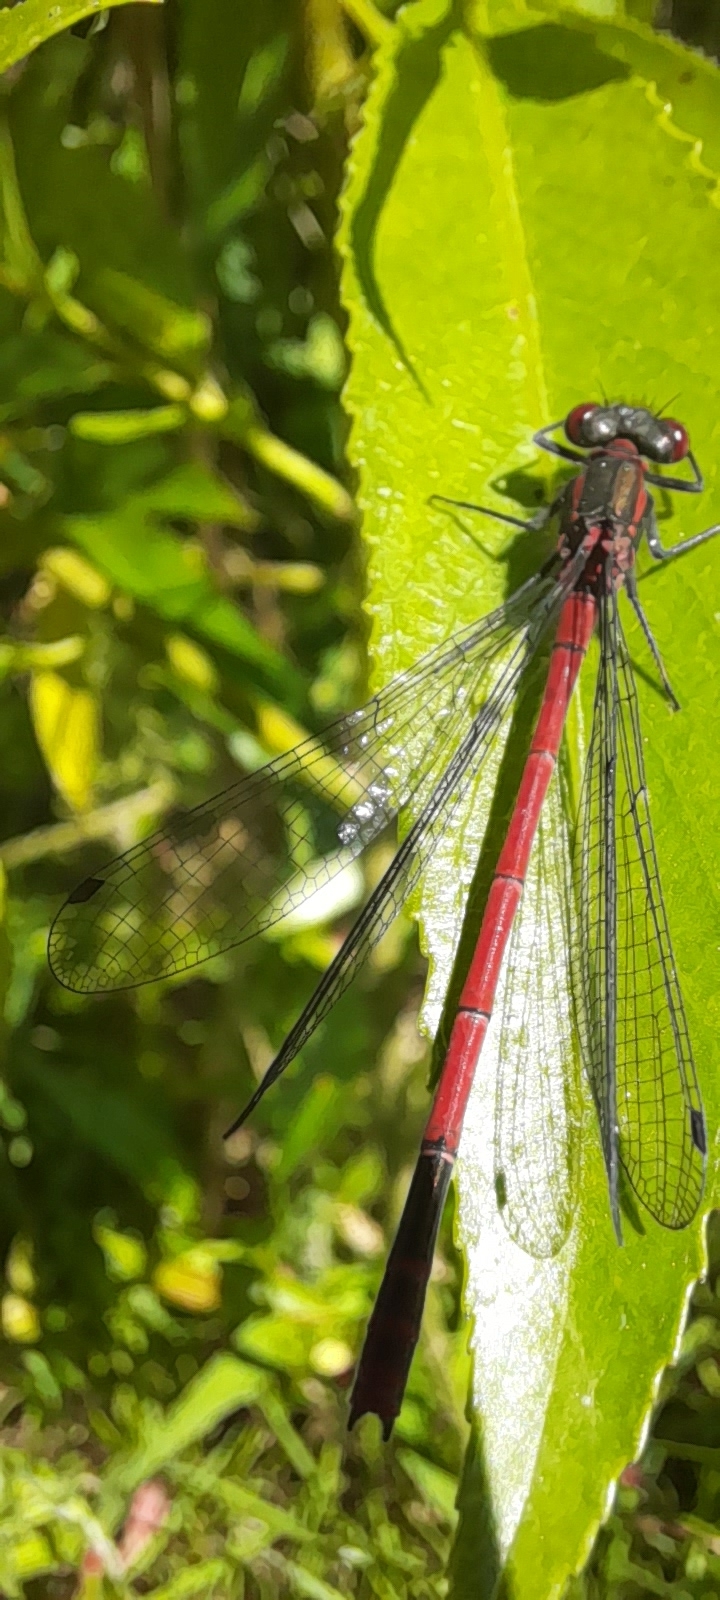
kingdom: Animalia
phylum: Arthropoda
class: Insecta
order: Odonata
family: Coenagrionidae
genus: Pyrrhosoma
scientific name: Pyrrhosoma nymphula
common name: Large red damsel
